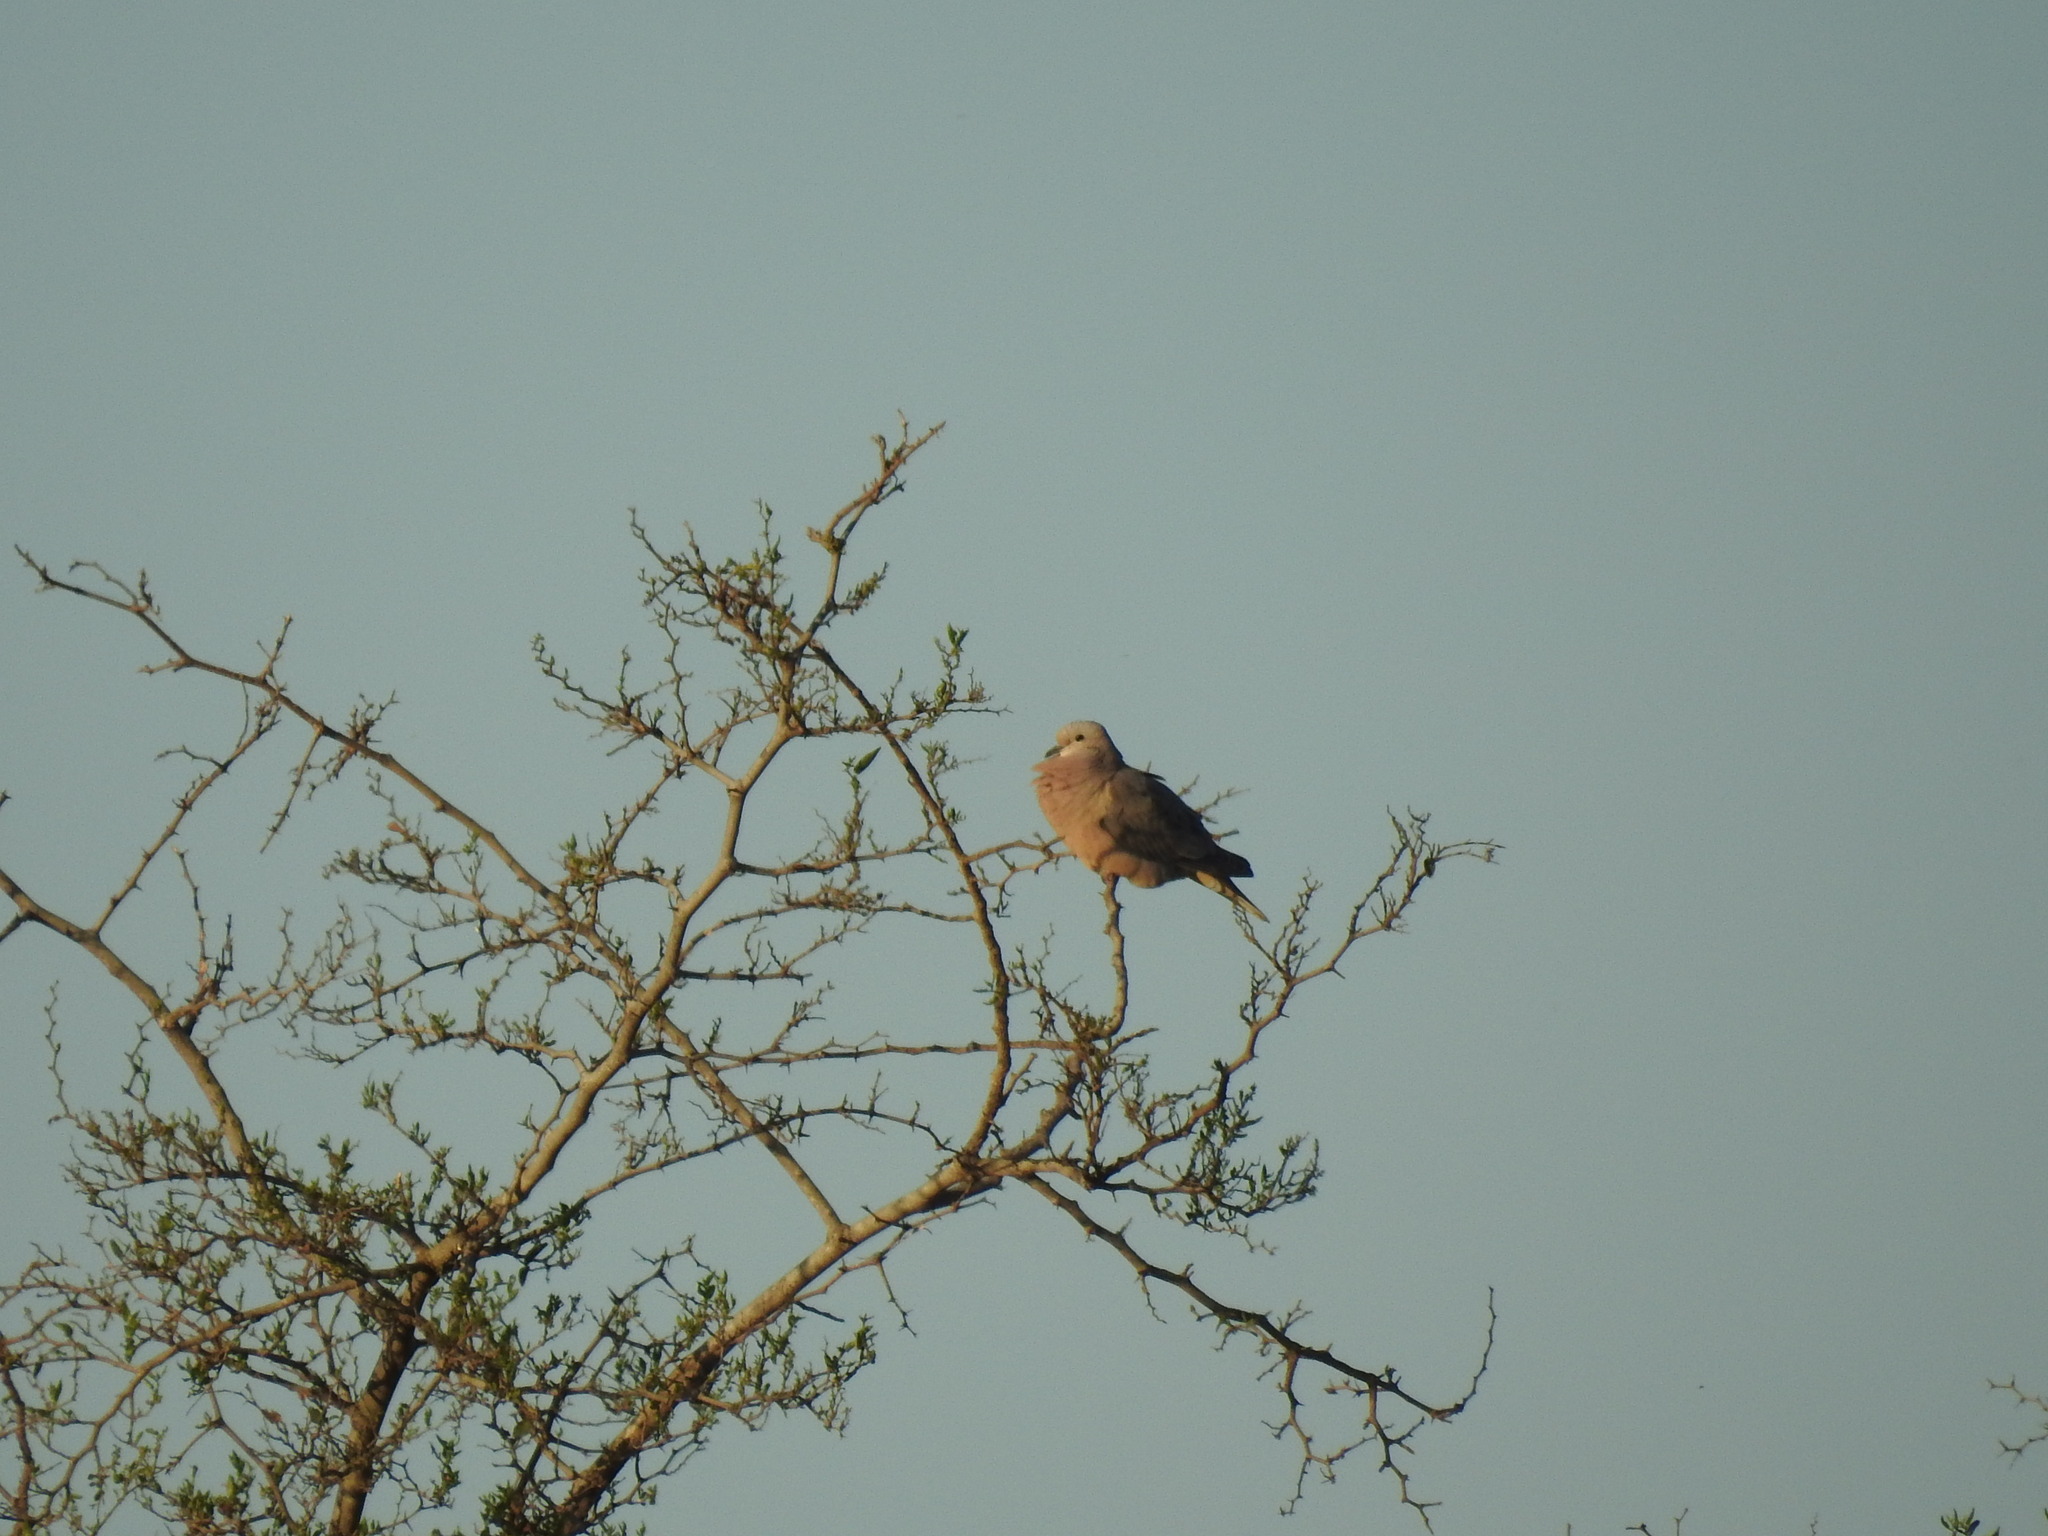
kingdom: Animalia
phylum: Chordata
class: Aves
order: Columbiformes
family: Columbidae
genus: Zenaida
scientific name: Zenaida auriculata
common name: Eared dove
